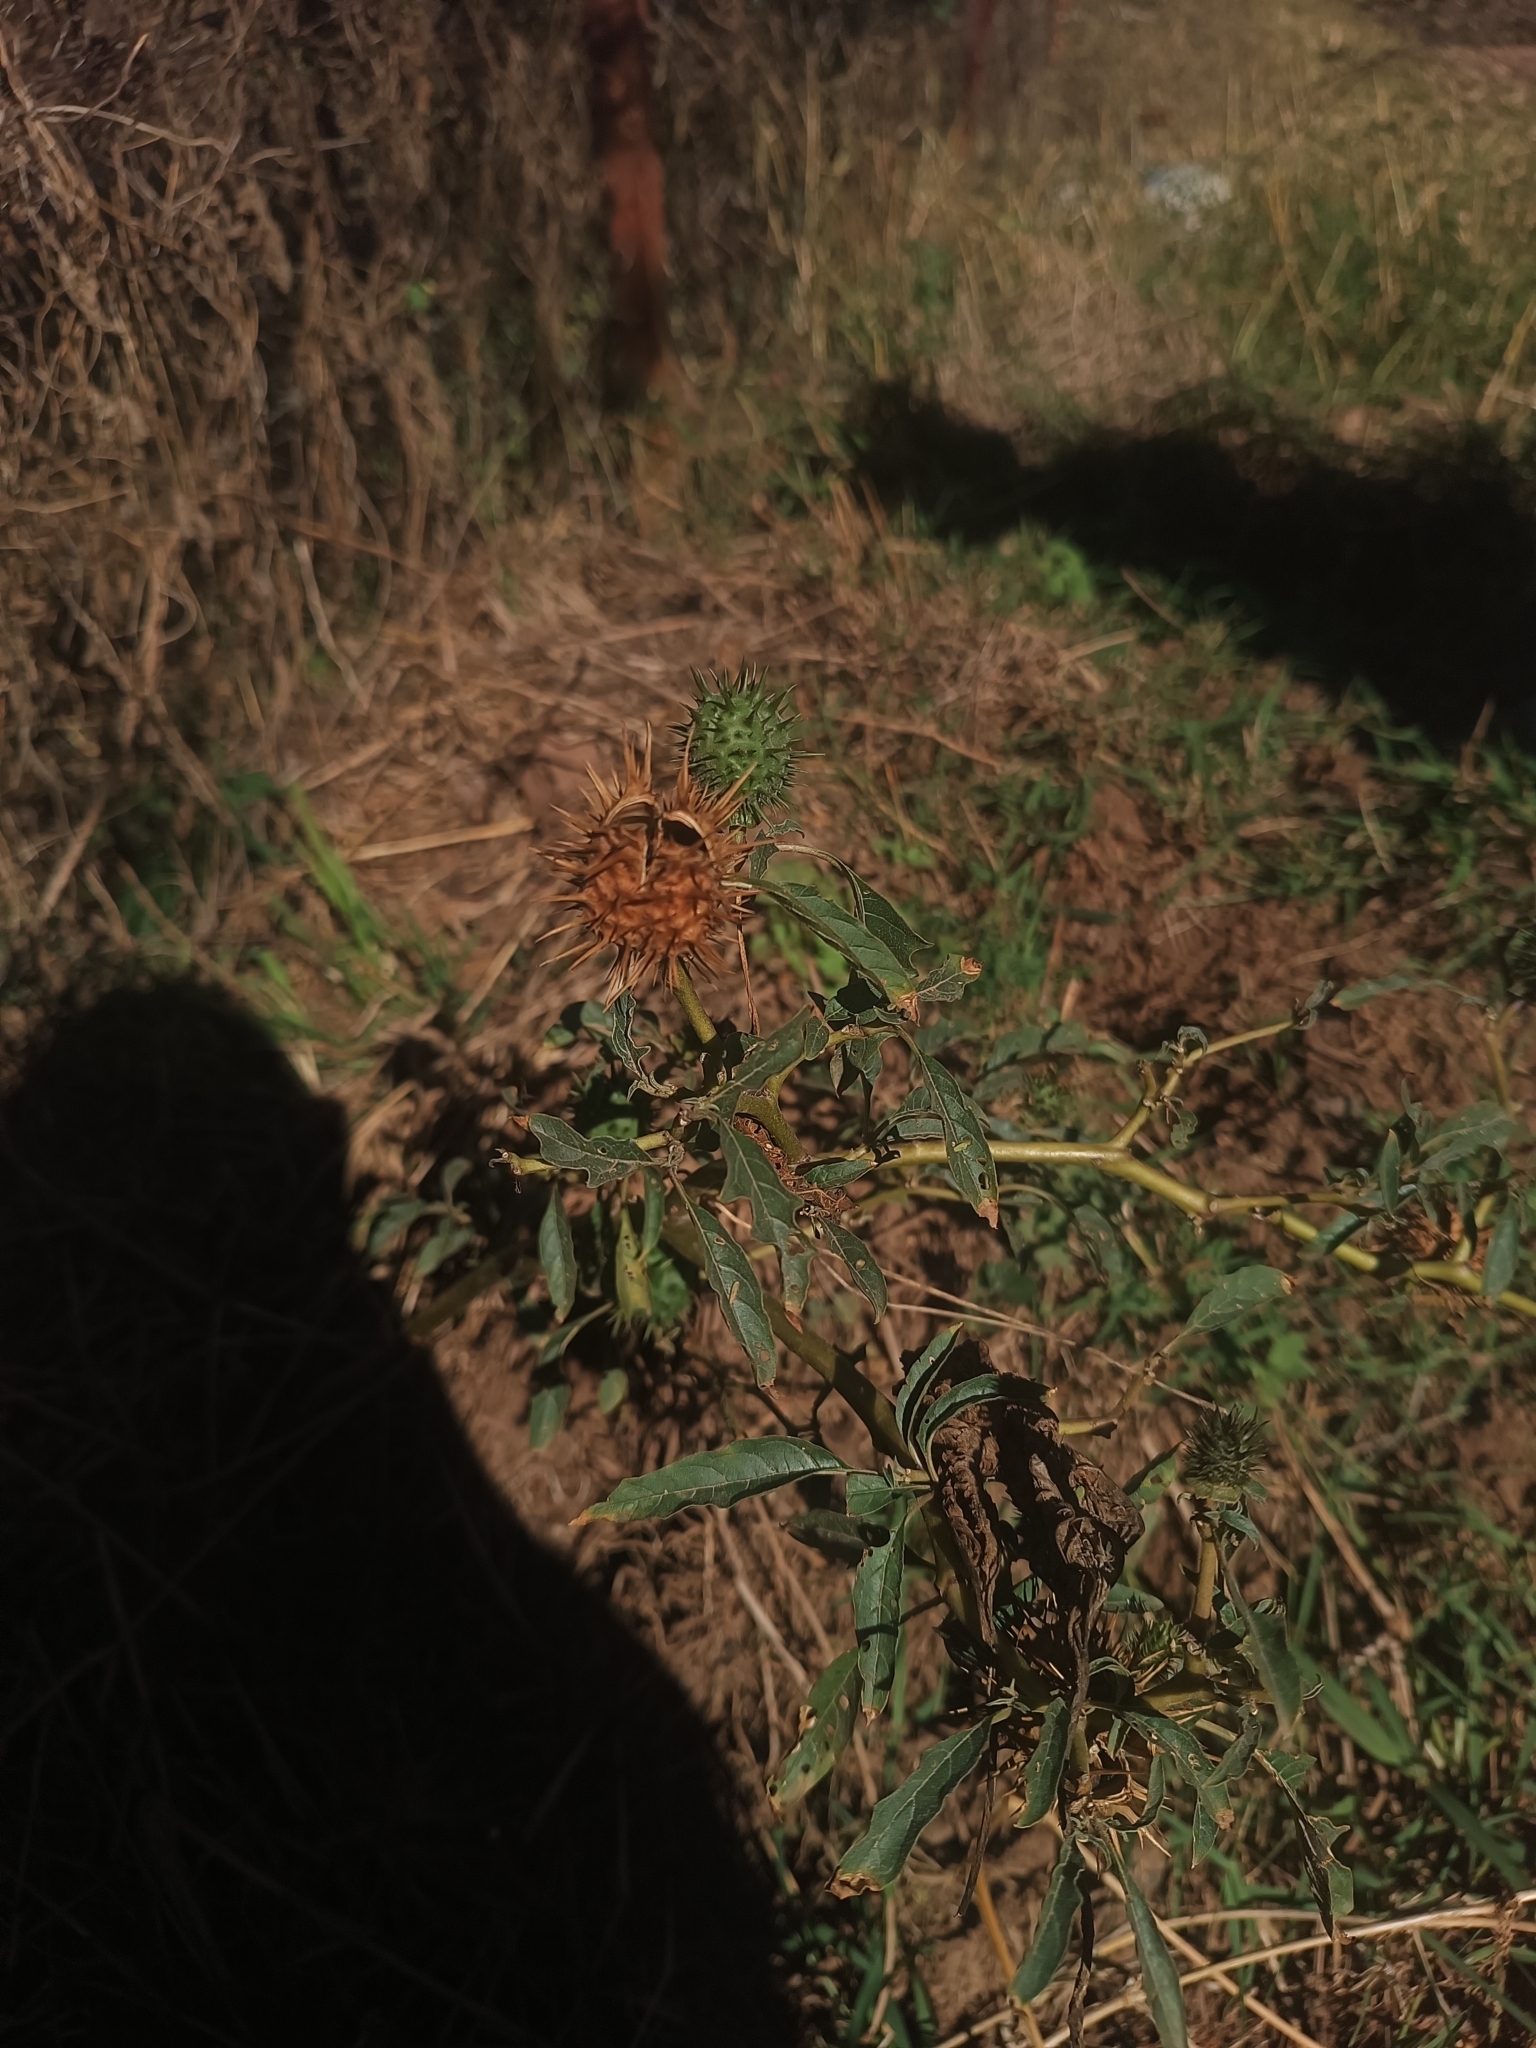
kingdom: Plantae
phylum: Tracheophyta
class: Magnoliopsida
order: Solanales
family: Solanaceae
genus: Datura
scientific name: Datura stramonium
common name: Thorn-apple
